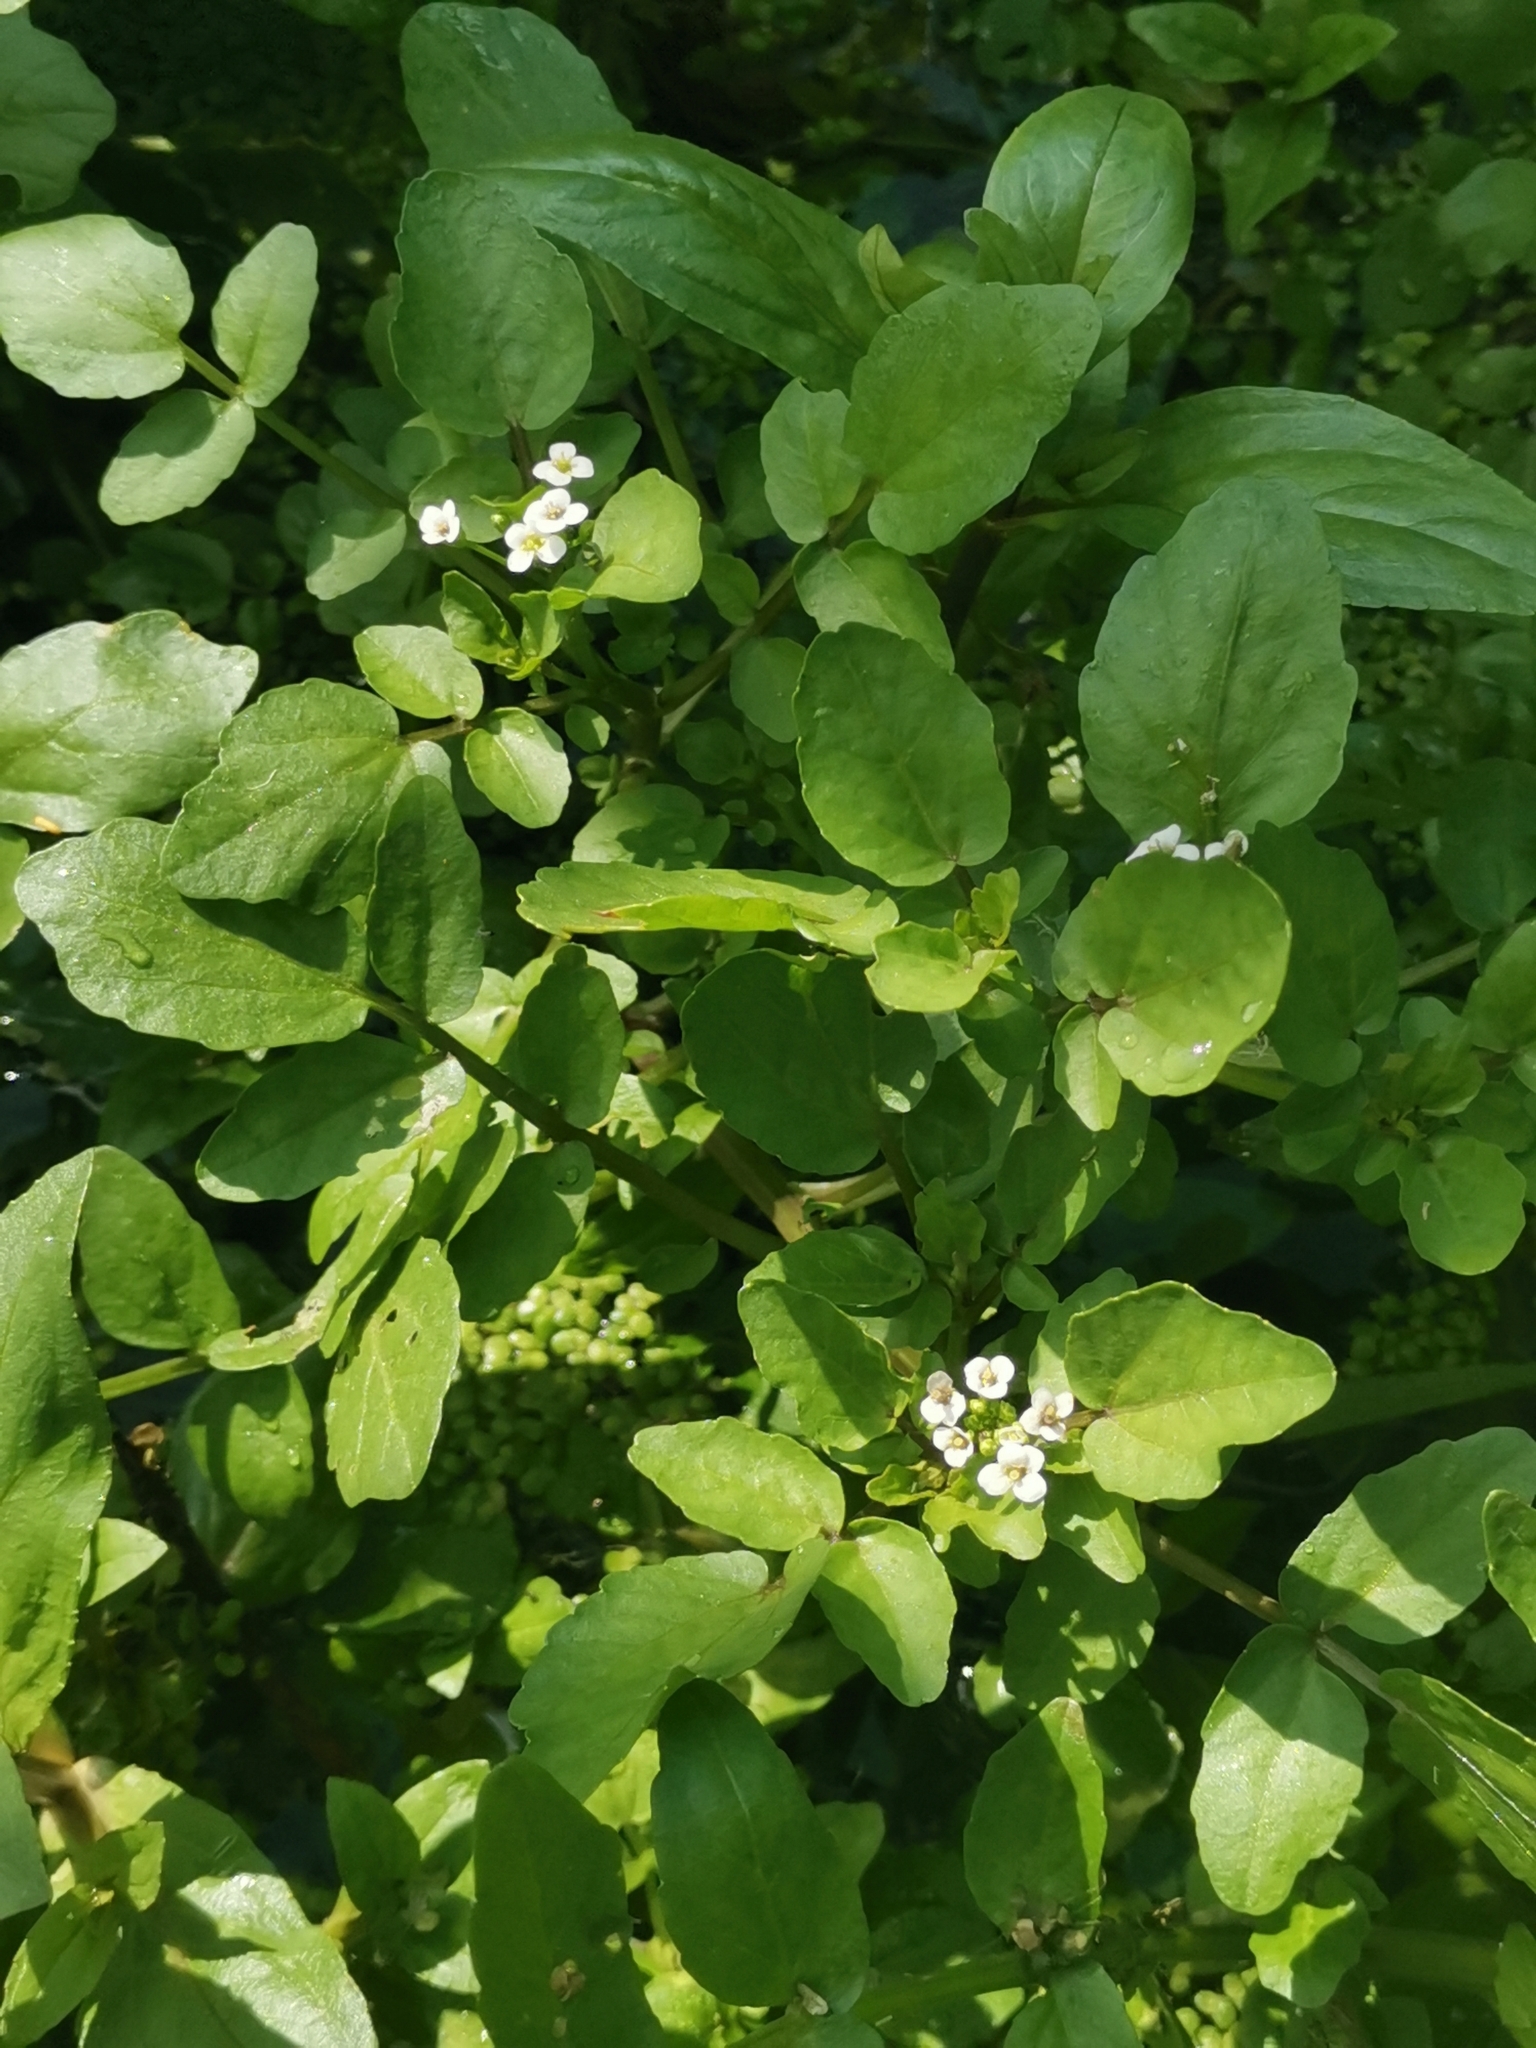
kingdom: Plantae
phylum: Tracheophyta
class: Magnoliopsida
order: Brassicales
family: Brassicaceae
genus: Nasturtium
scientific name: Nasturtium officinale
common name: Watercress
